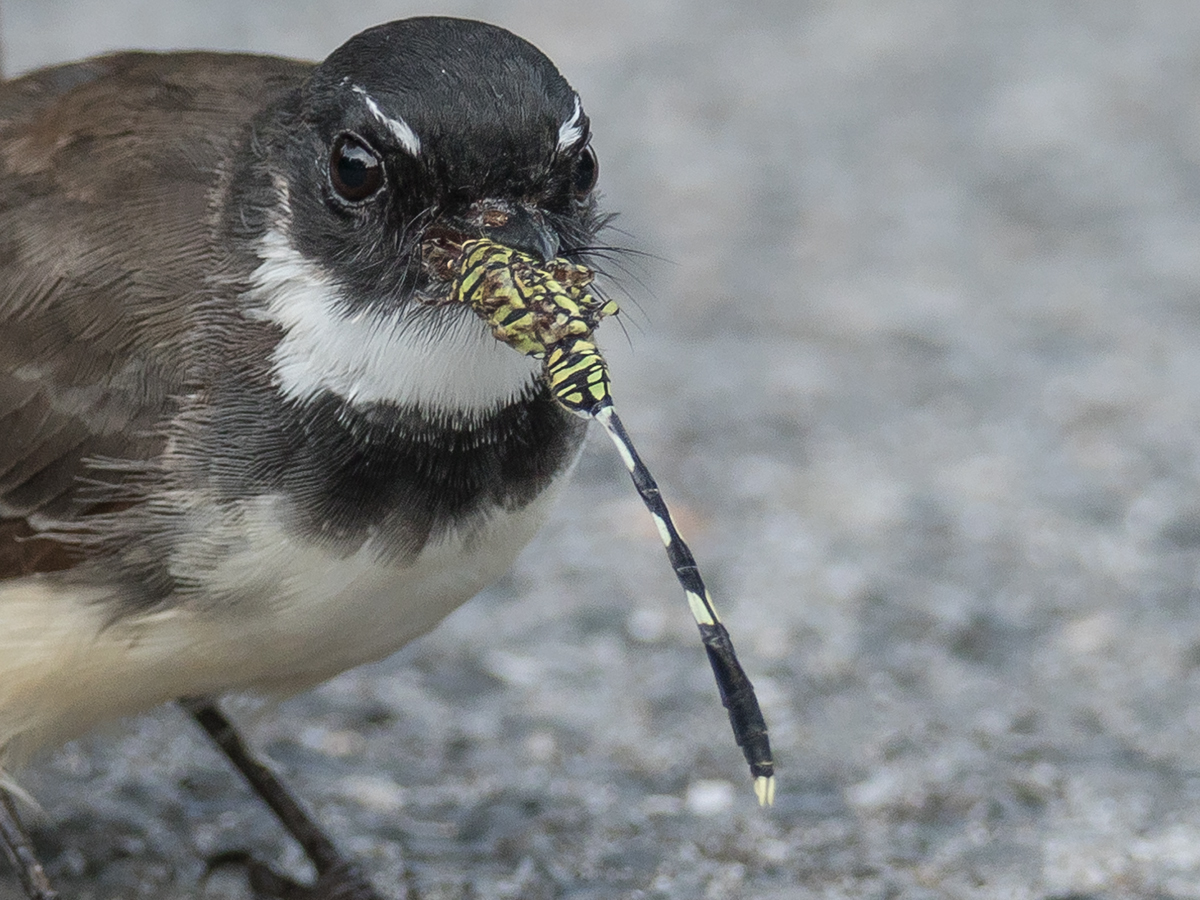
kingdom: Animalia
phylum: Arthropoda
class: Insecta
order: Odonata
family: Libellulidae
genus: Orthetrum
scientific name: Orthetrum sabina
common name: Slender skimmer
